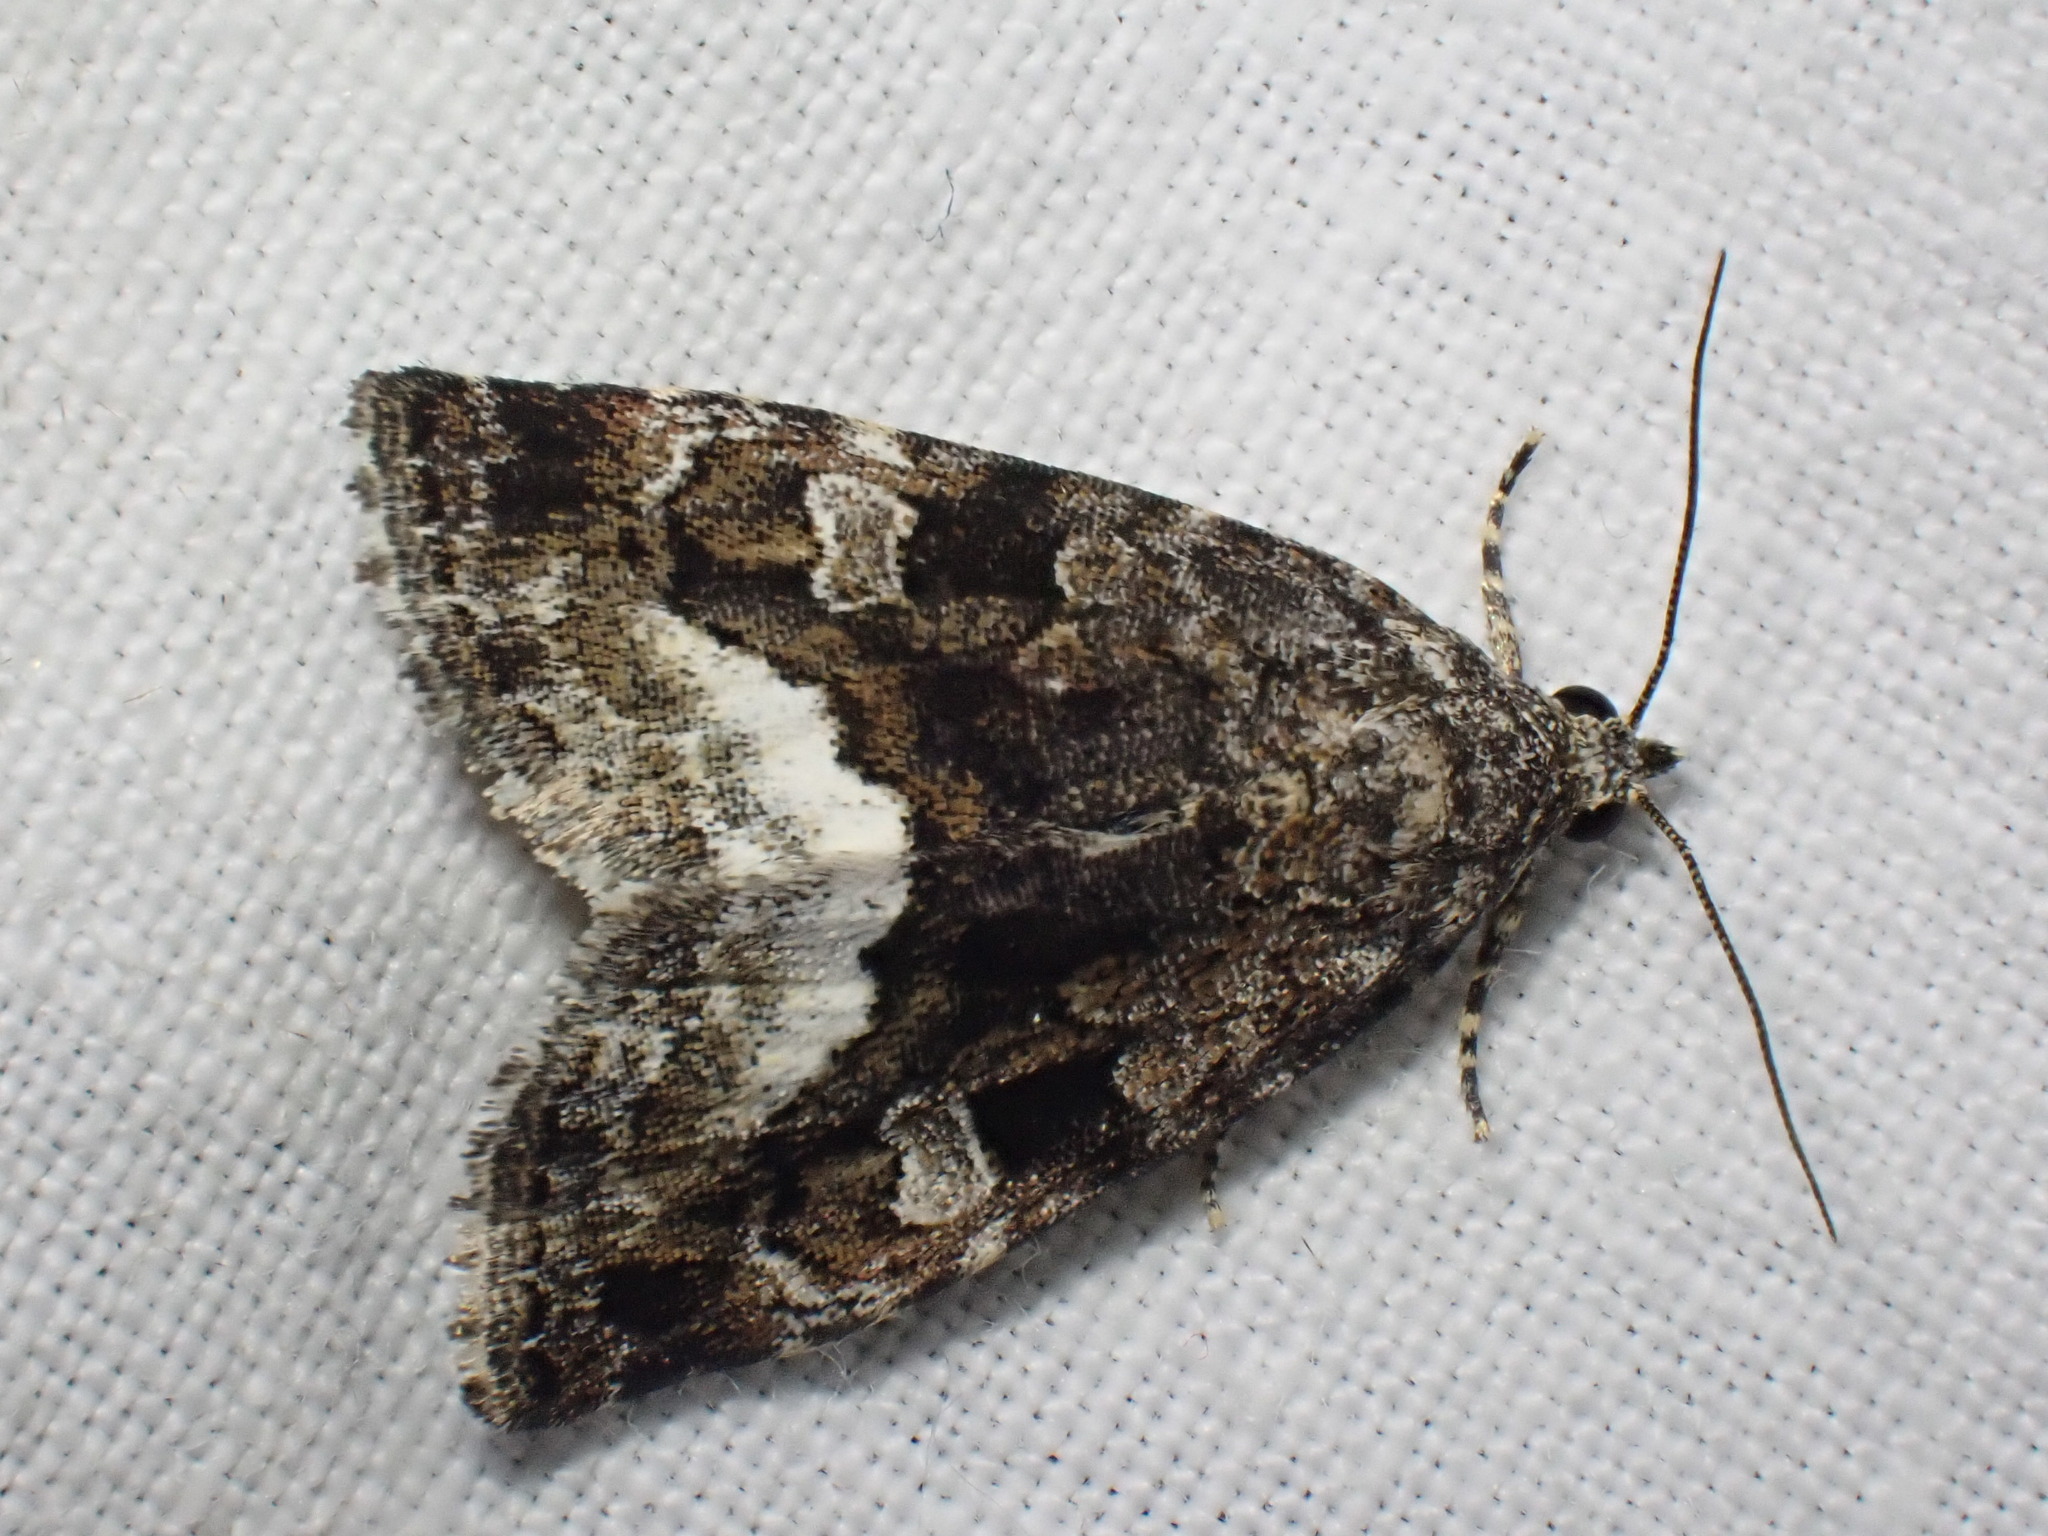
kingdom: Animalia
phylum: Arthropoda
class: Insecta
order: Lepidoptera
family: Noctuidae
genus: Deltote
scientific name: Deltote pygarga
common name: Marbled white spot
